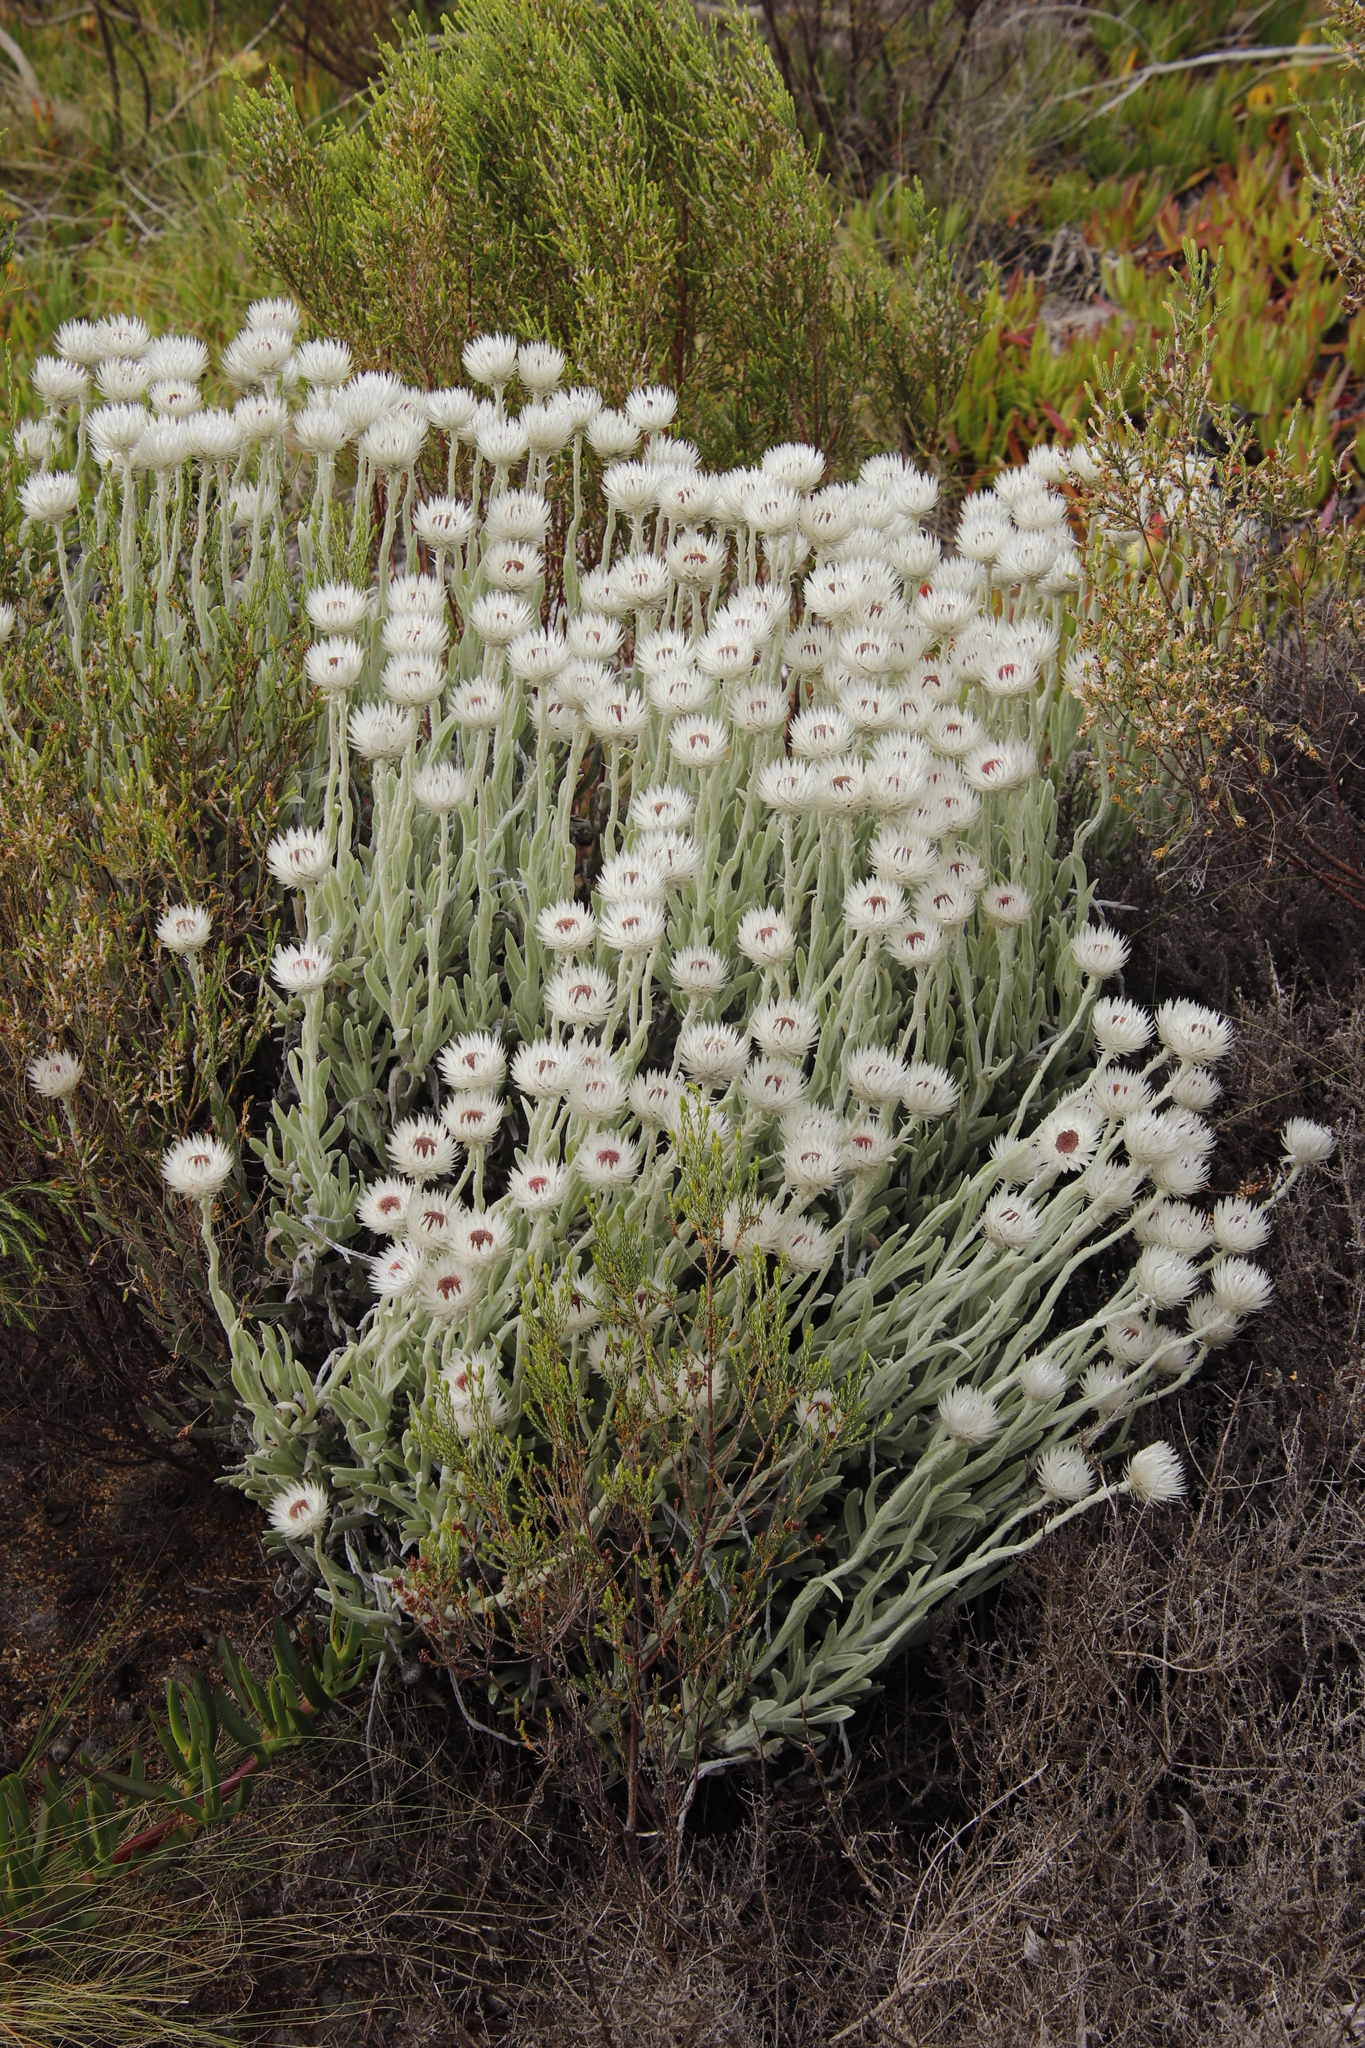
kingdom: Plantae
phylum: Tracheophyta
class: Magnoliopsida
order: Asterales
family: Asteraceae
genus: Syncarpha
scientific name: Syncarpha vestita
